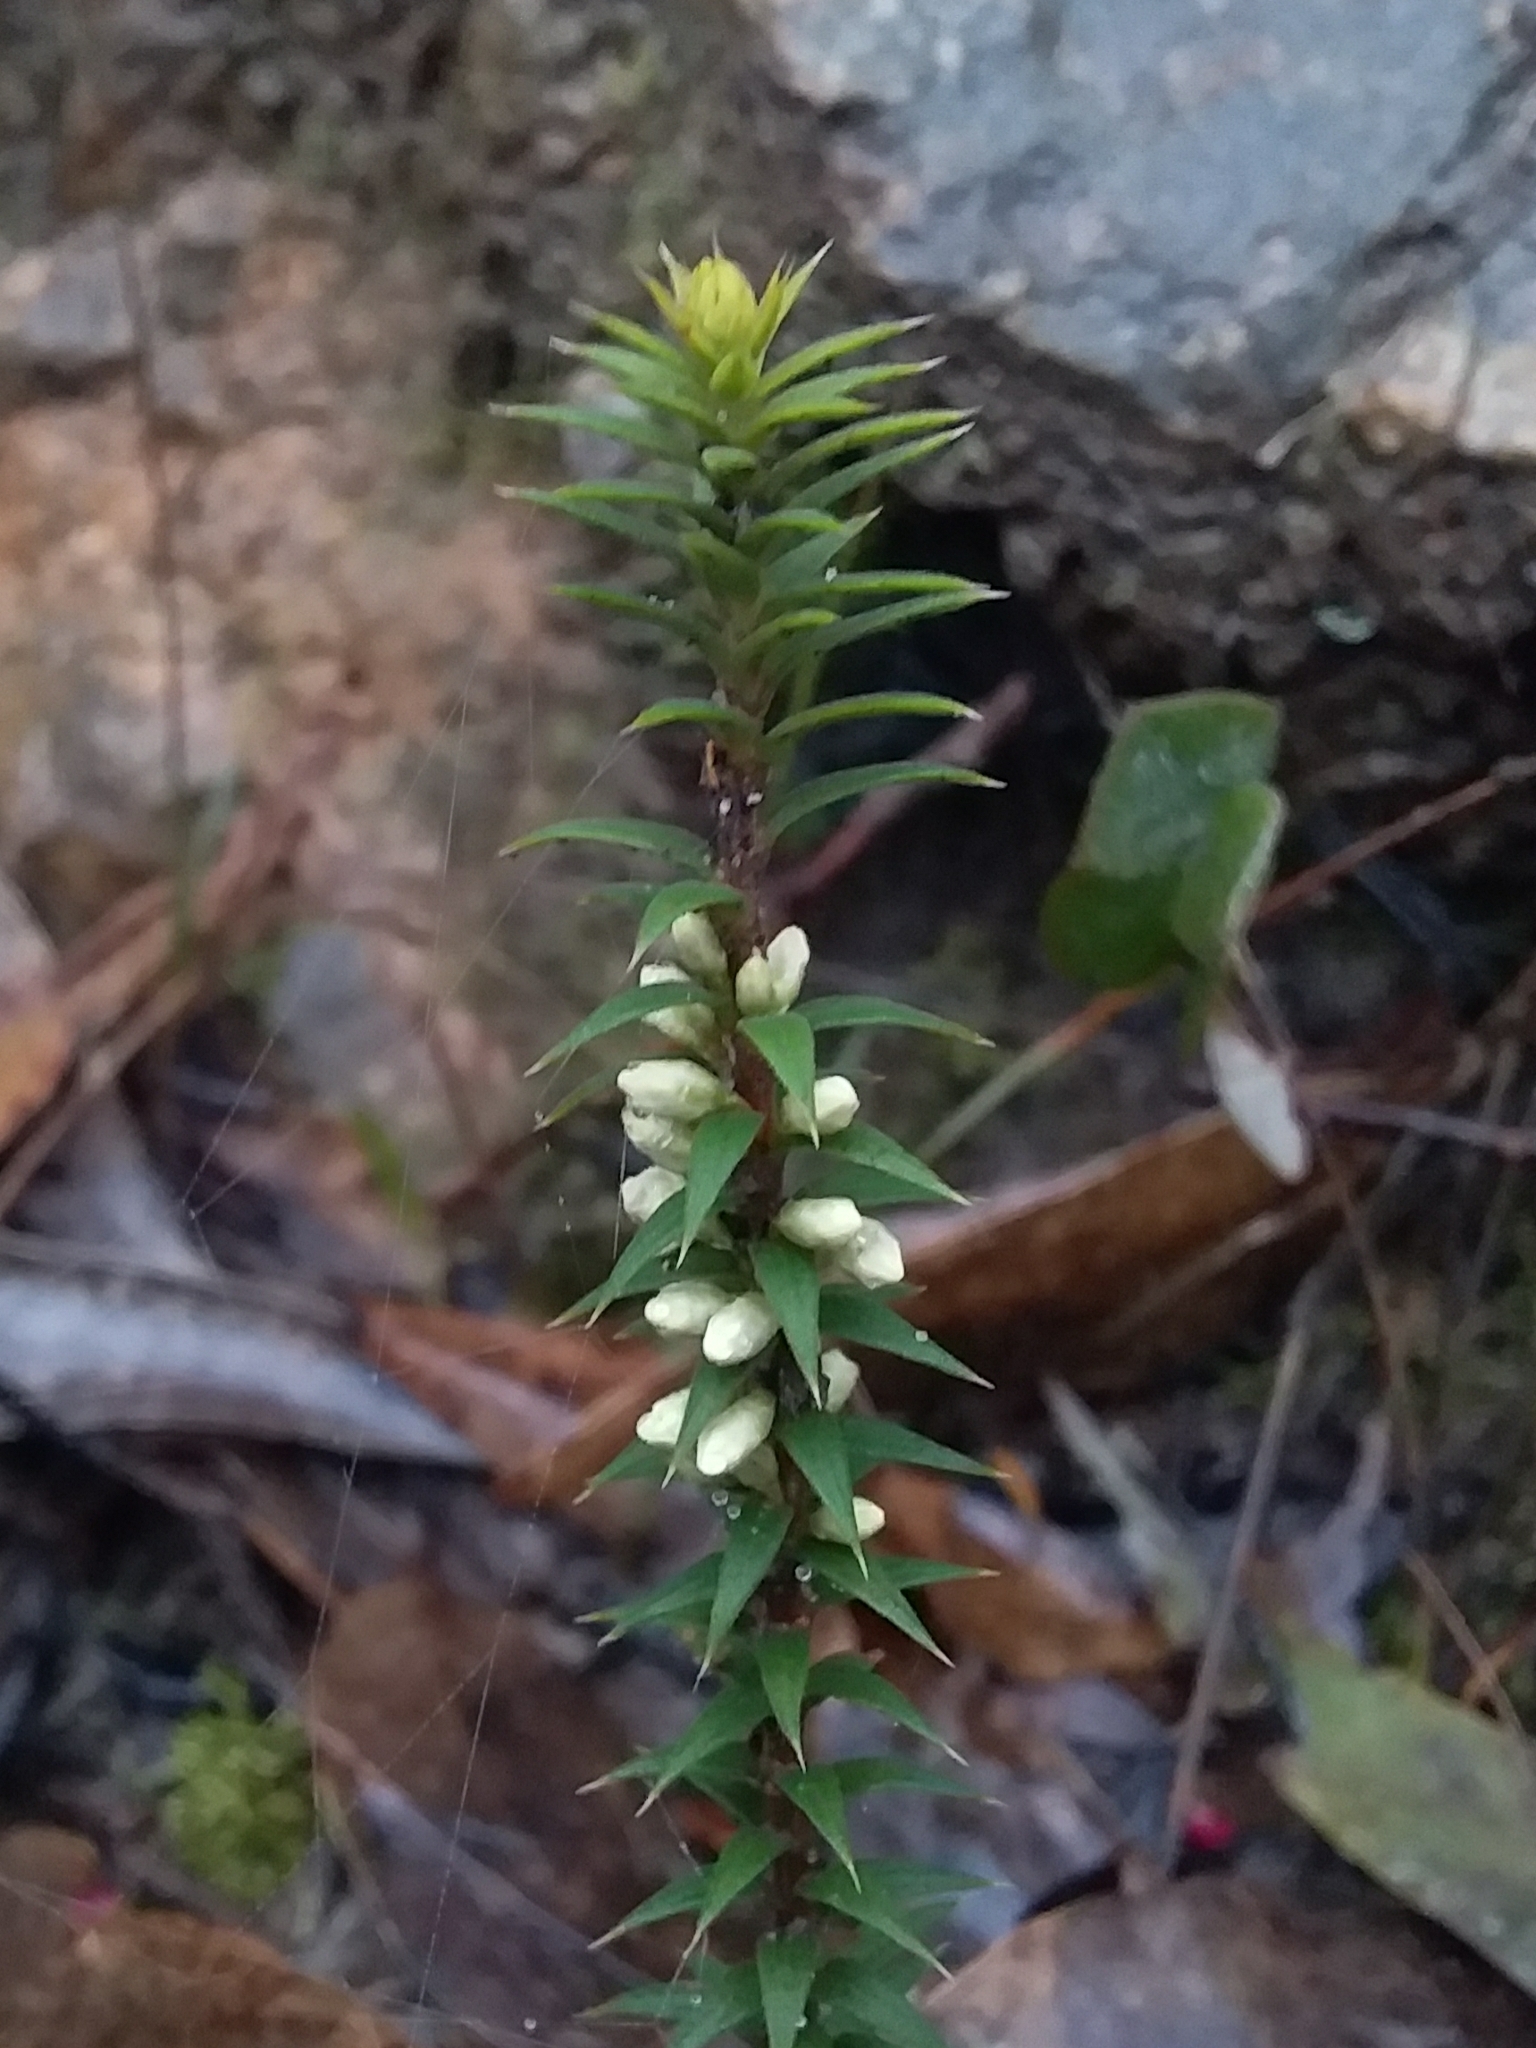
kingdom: Plantae
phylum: Tracheophyta
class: Magnoliopsida
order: Ericales
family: Ericaceae
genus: Epacris
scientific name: Epacris impressa
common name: Common-heath
